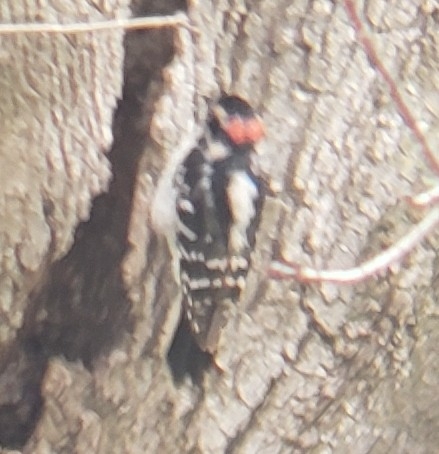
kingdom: Animalia
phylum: Chordata
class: Aves
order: Piciformes
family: Picidae
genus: Dryobates
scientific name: Dryobates pubescens
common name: Downy woodpecker
